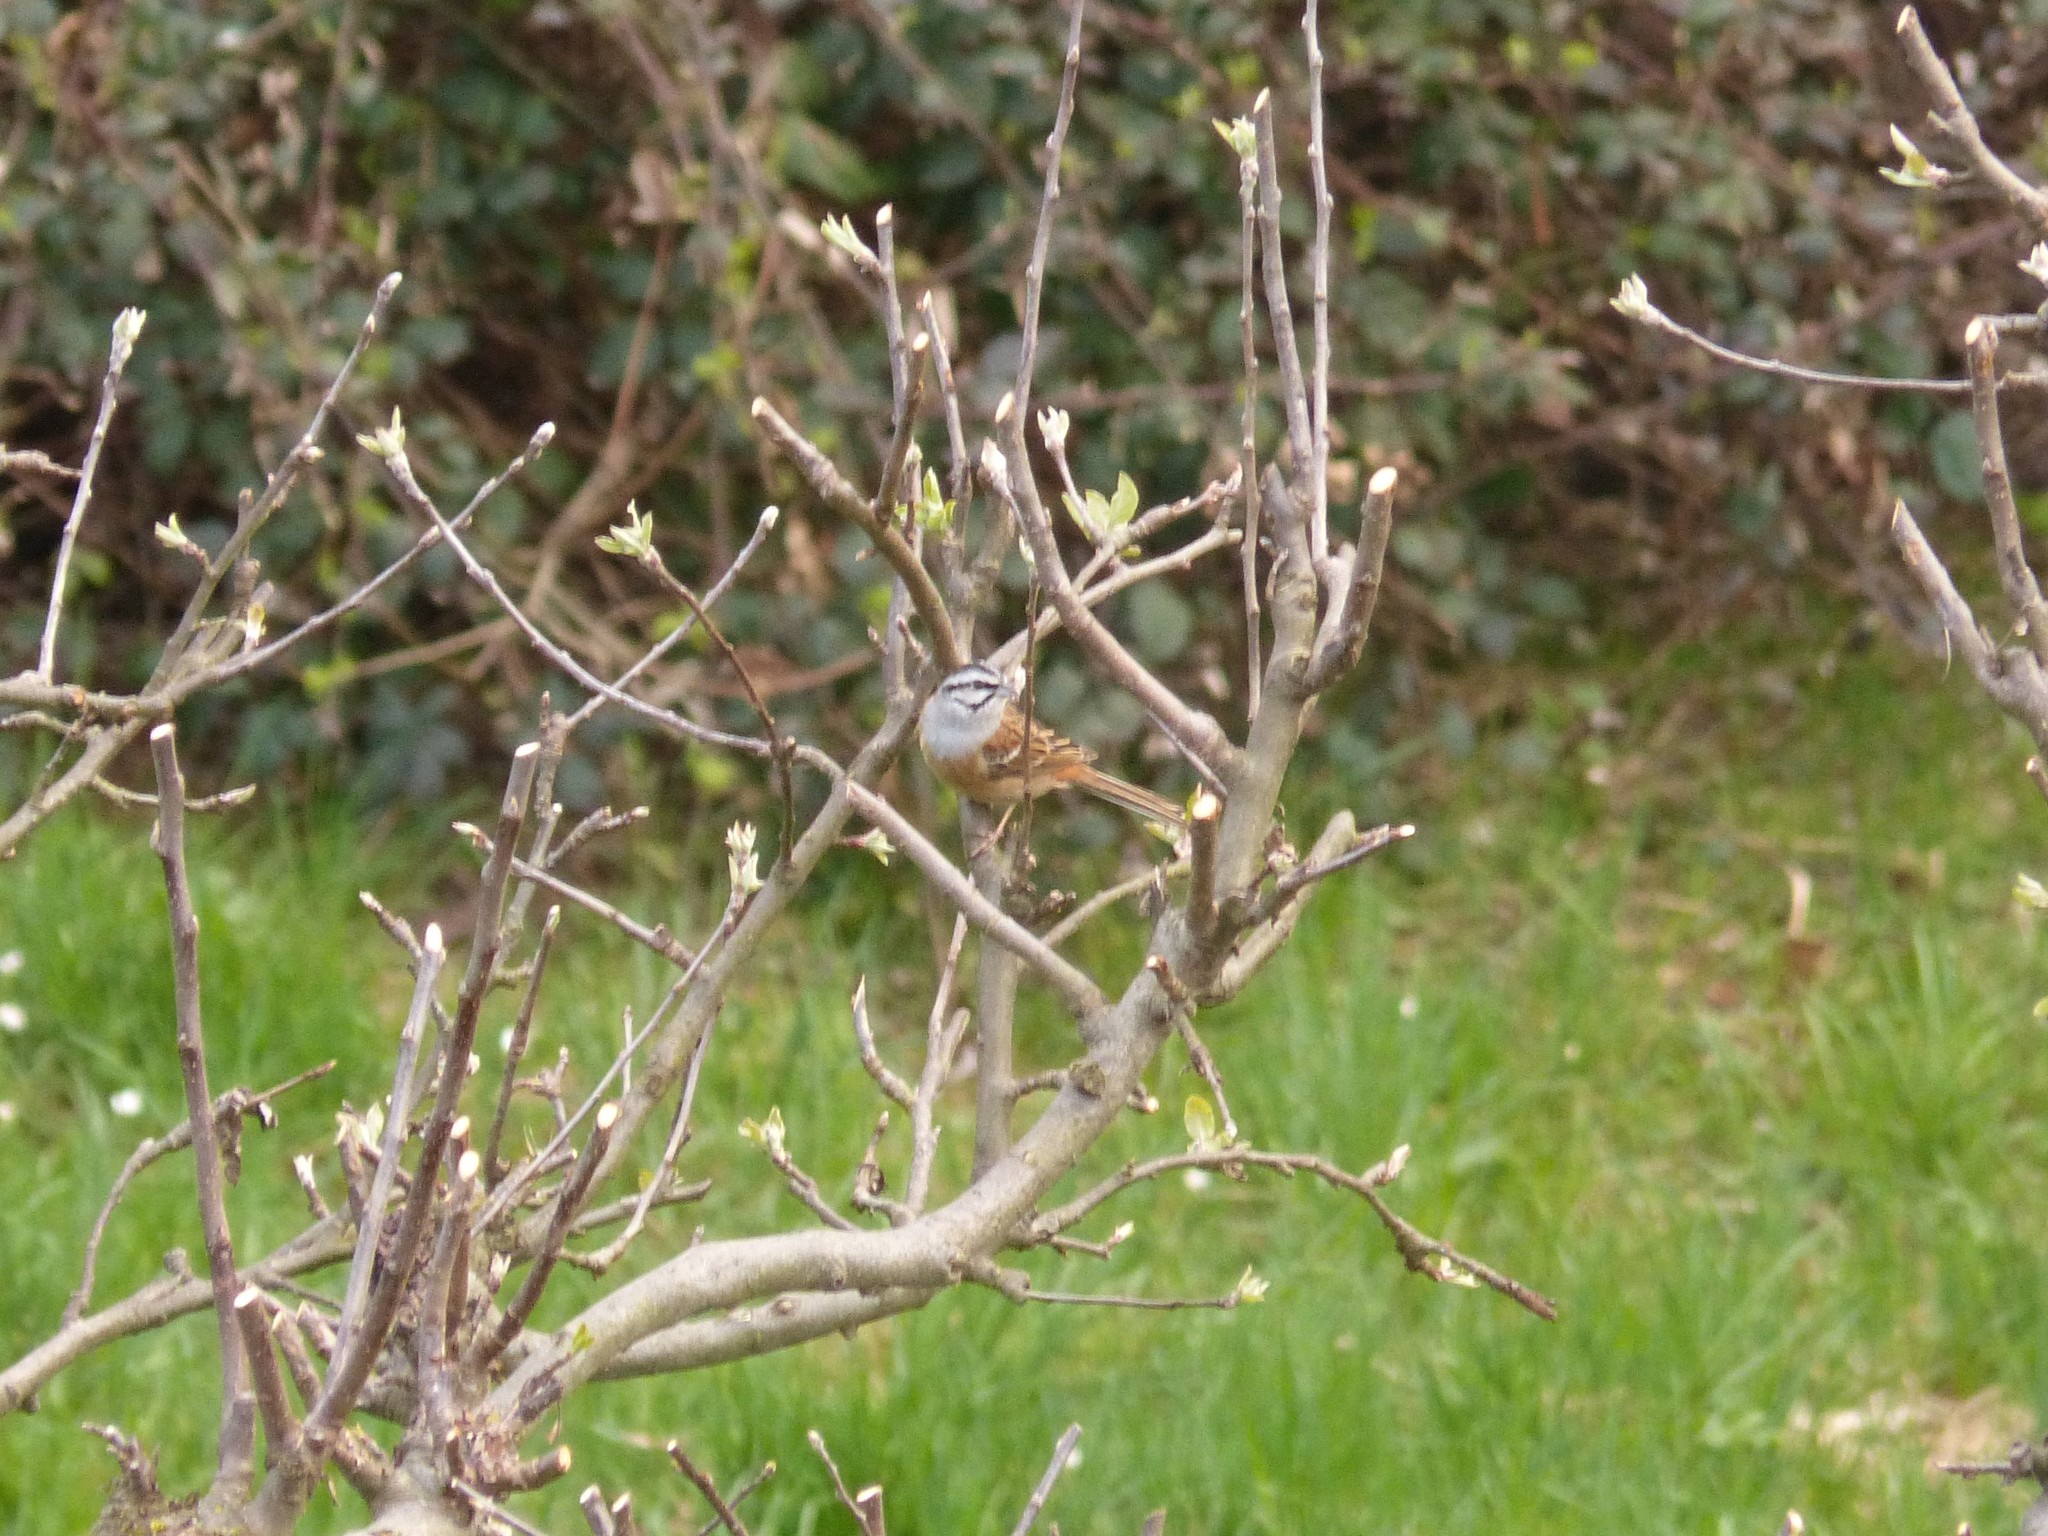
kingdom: Animalia
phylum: Chordata
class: Aves
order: Passeriformes
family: Emberizidae
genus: Emberiza
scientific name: Emberiza cia
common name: Rock bunting
